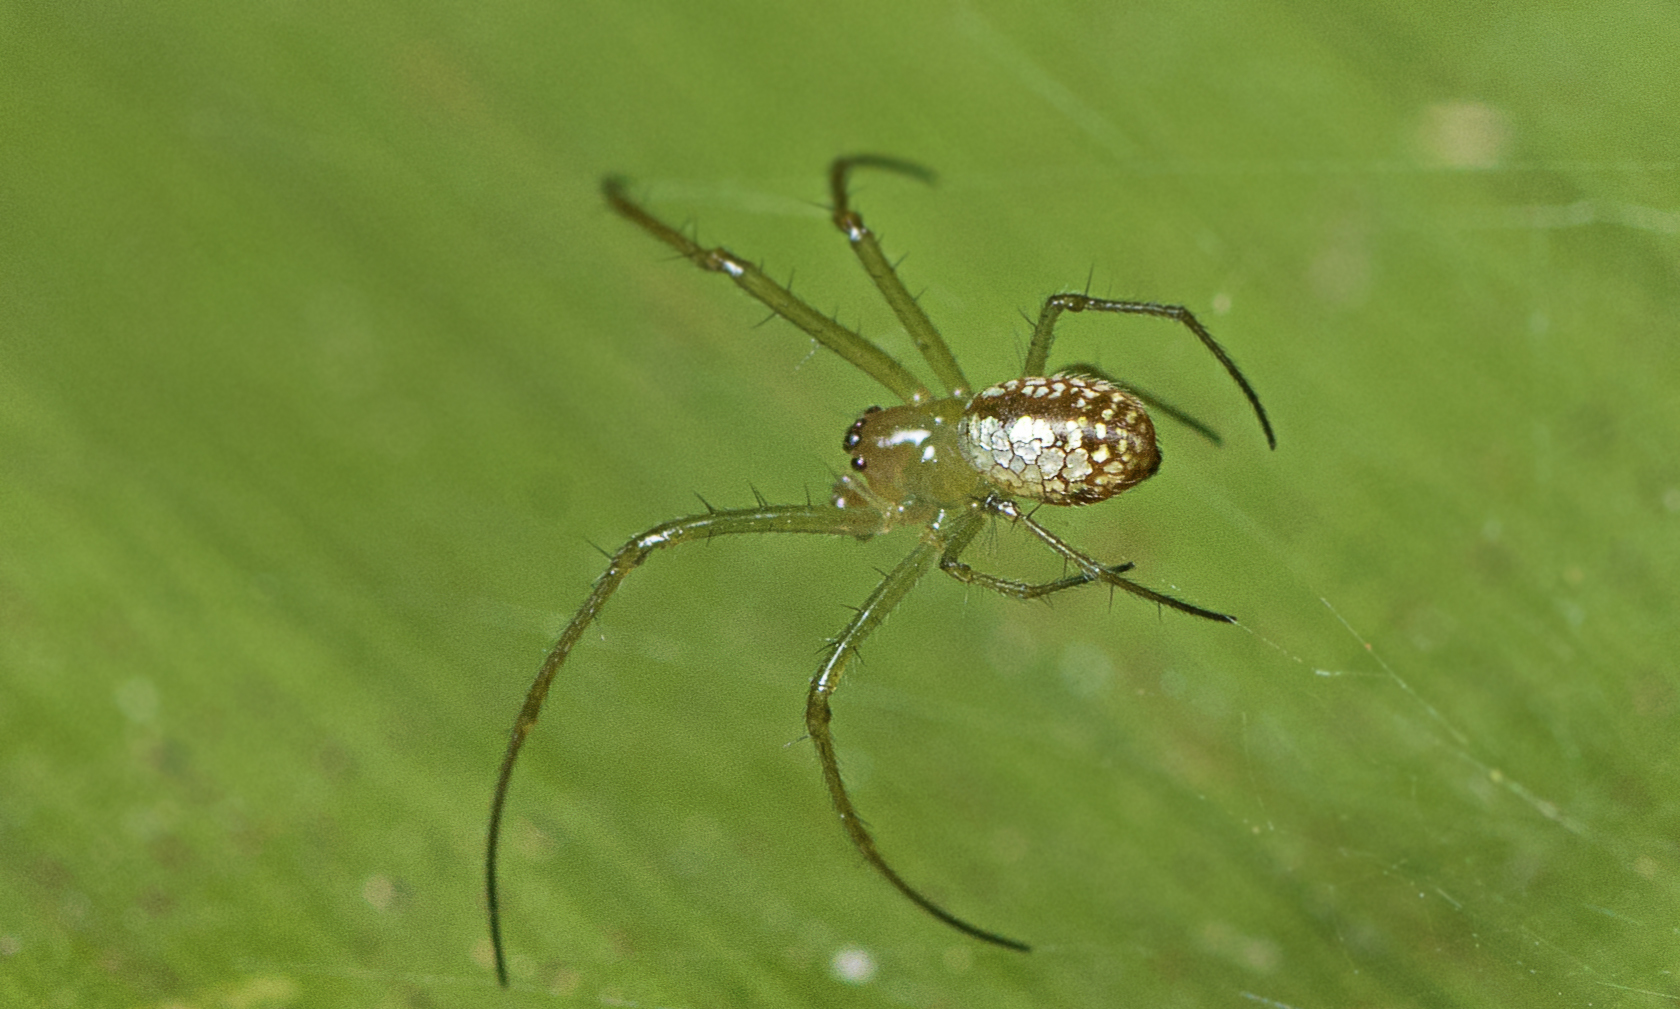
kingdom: Animalia
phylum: Arthropoda
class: Arachnida
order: Araneae
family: Tetragnathidae
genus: Mesida
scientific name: Mesida argentiopunctata
